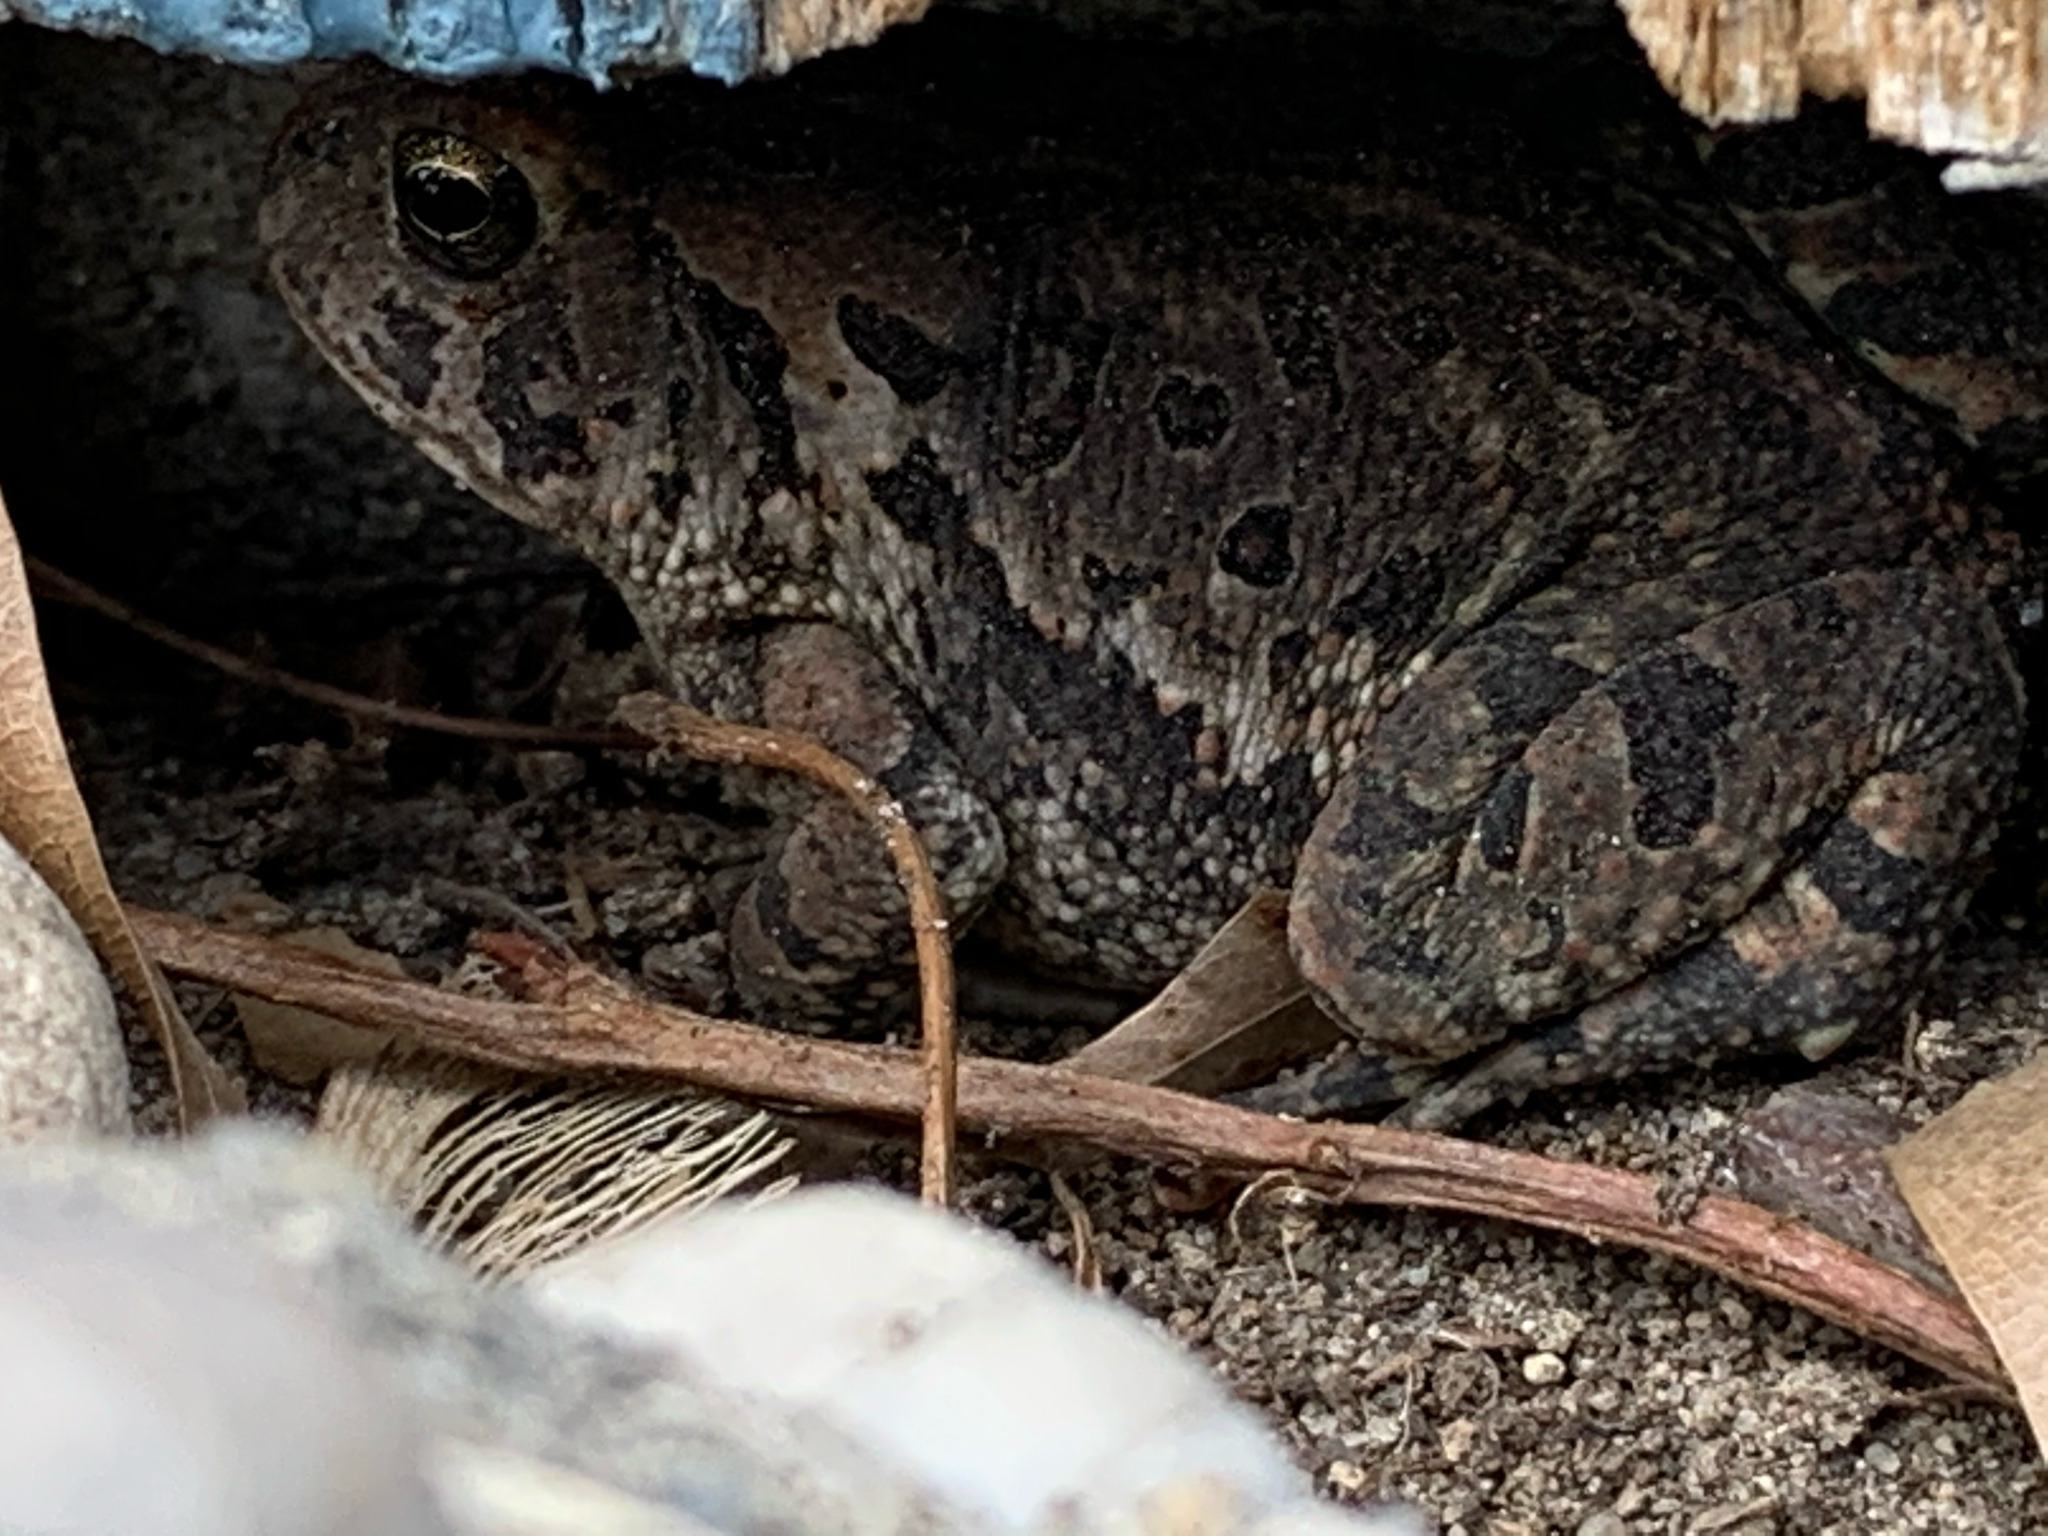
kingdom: Animalia
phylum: Chordata
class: Amphibia
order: Anura
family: Bufonidae
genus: Anaxyrus
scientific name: Anaxyrus fowleri
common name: Fowler's toad
